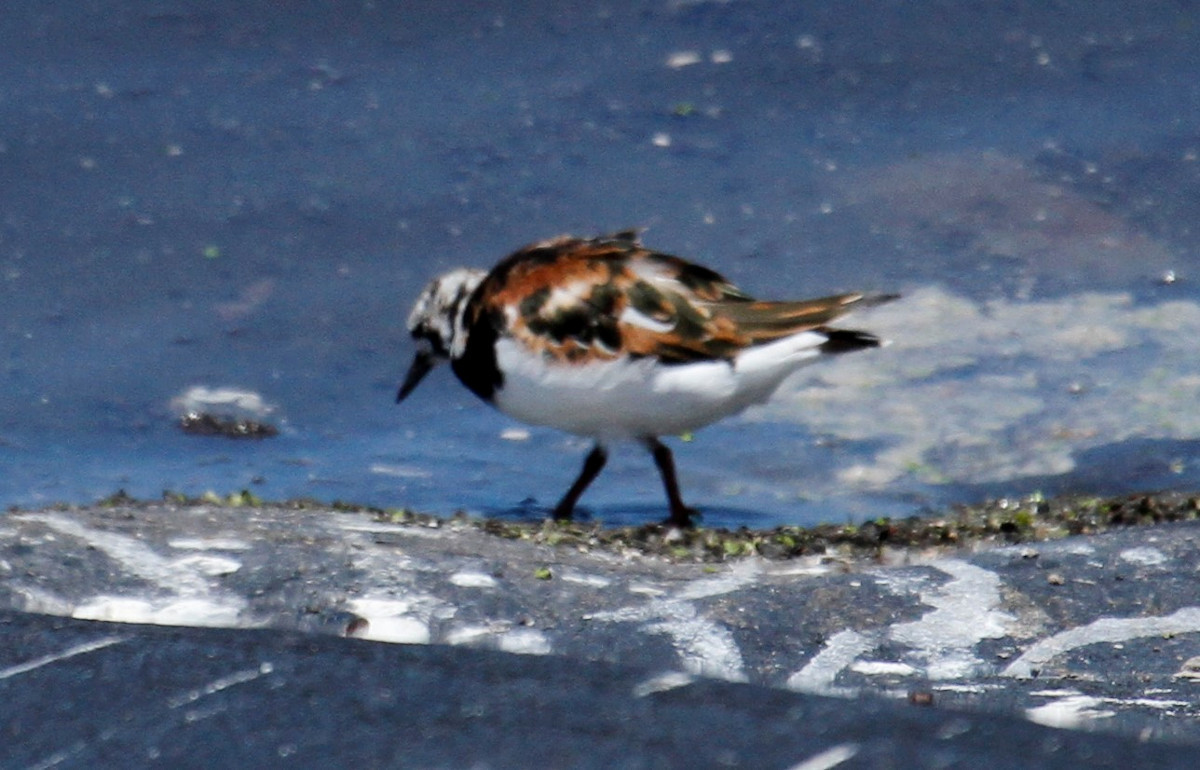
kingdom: Animalia
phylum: Chordata
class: Aves
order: Charadriiformes
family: Scolopacidae
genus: Arenaria
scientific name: Arenaria interpres
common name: Ruddy turnstone
